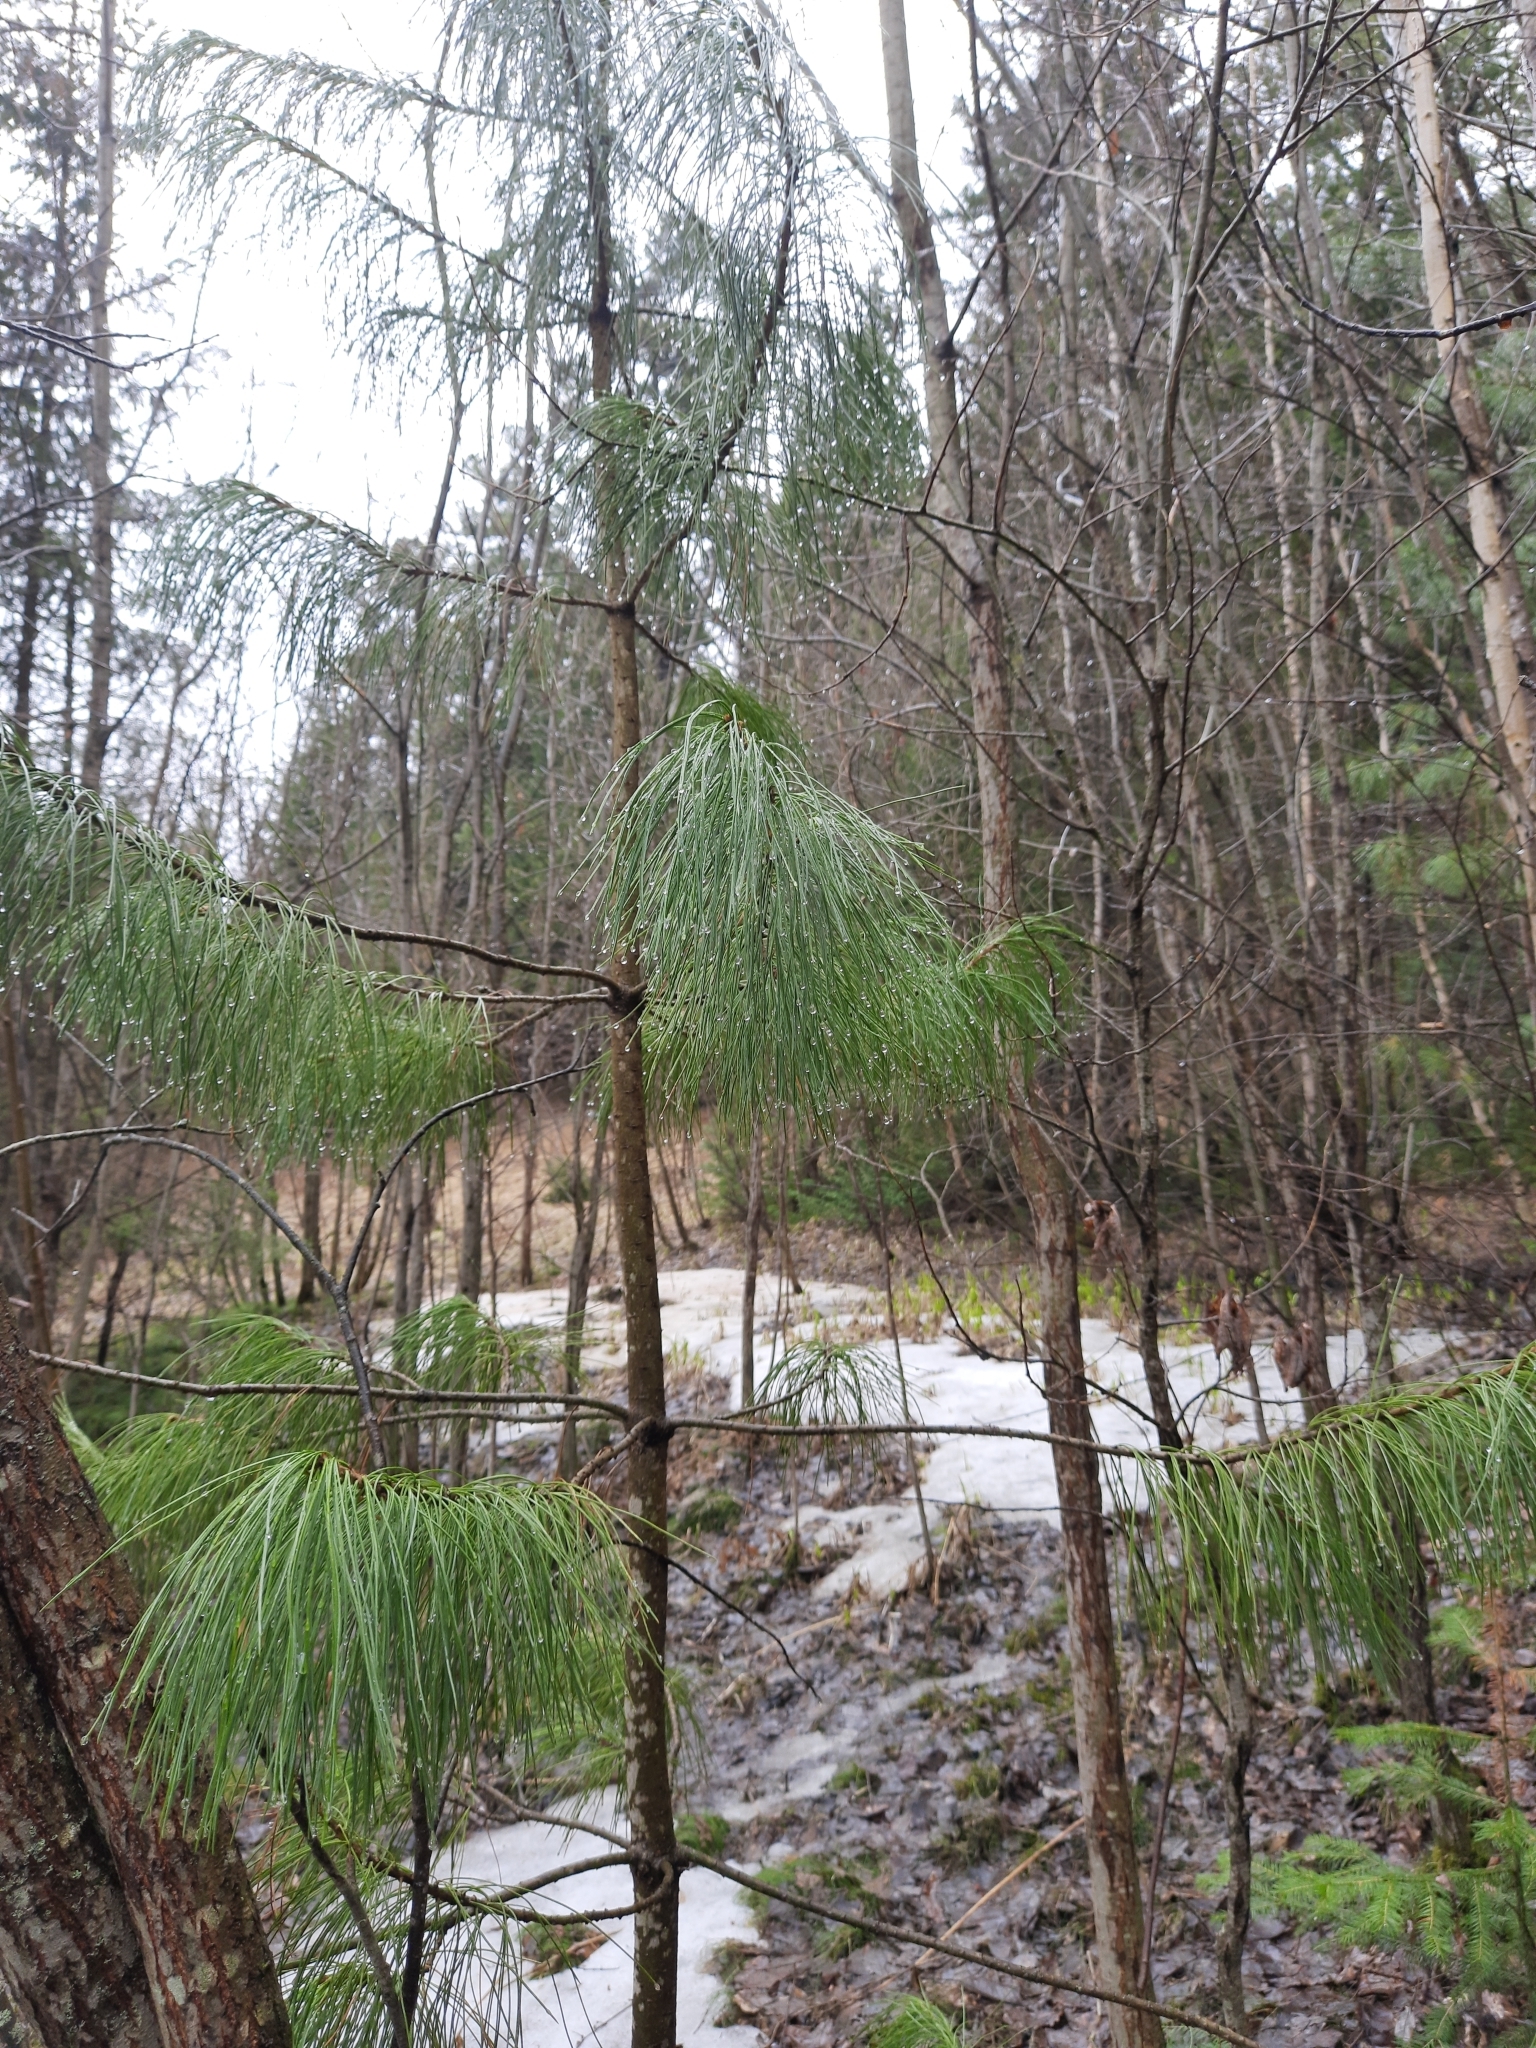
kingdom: Plantae
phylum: Tracheophyta
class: Pinopsida
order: Pinales
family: Pinaceae
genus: Pinus
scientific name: Pinus sibirica
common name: Siberian pine
